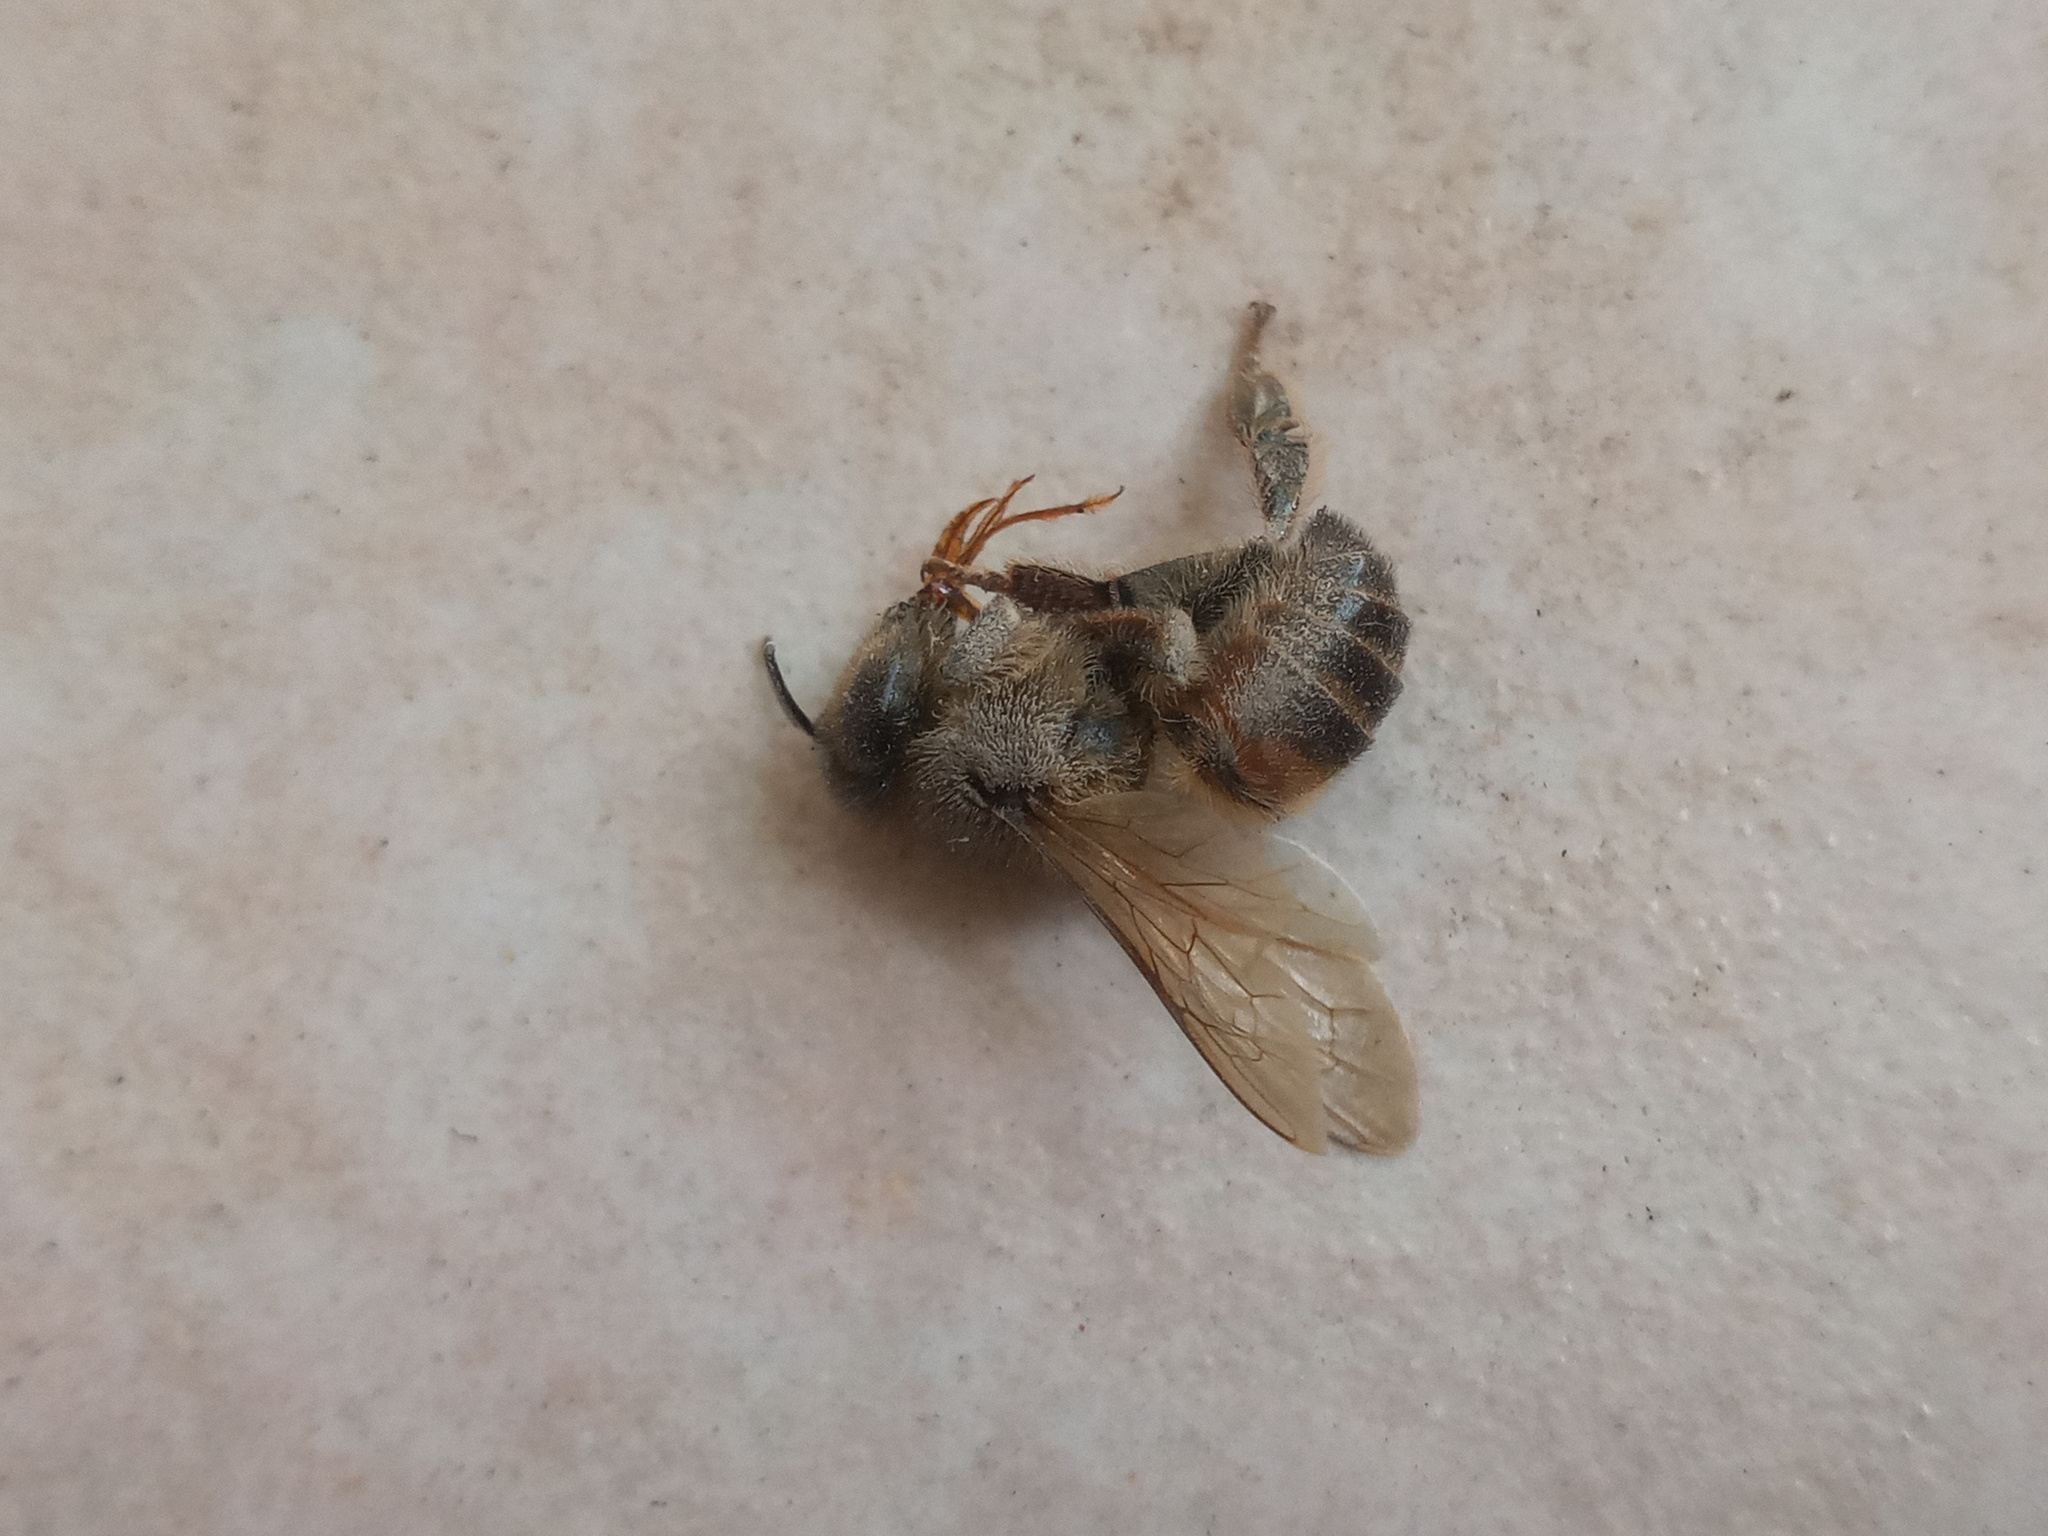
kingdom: Animalia
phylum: Arthropoda
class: Insecta
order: Hymenoptera
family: Apidae
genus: Apis
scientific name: Apis mellifera
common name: Honey bee
